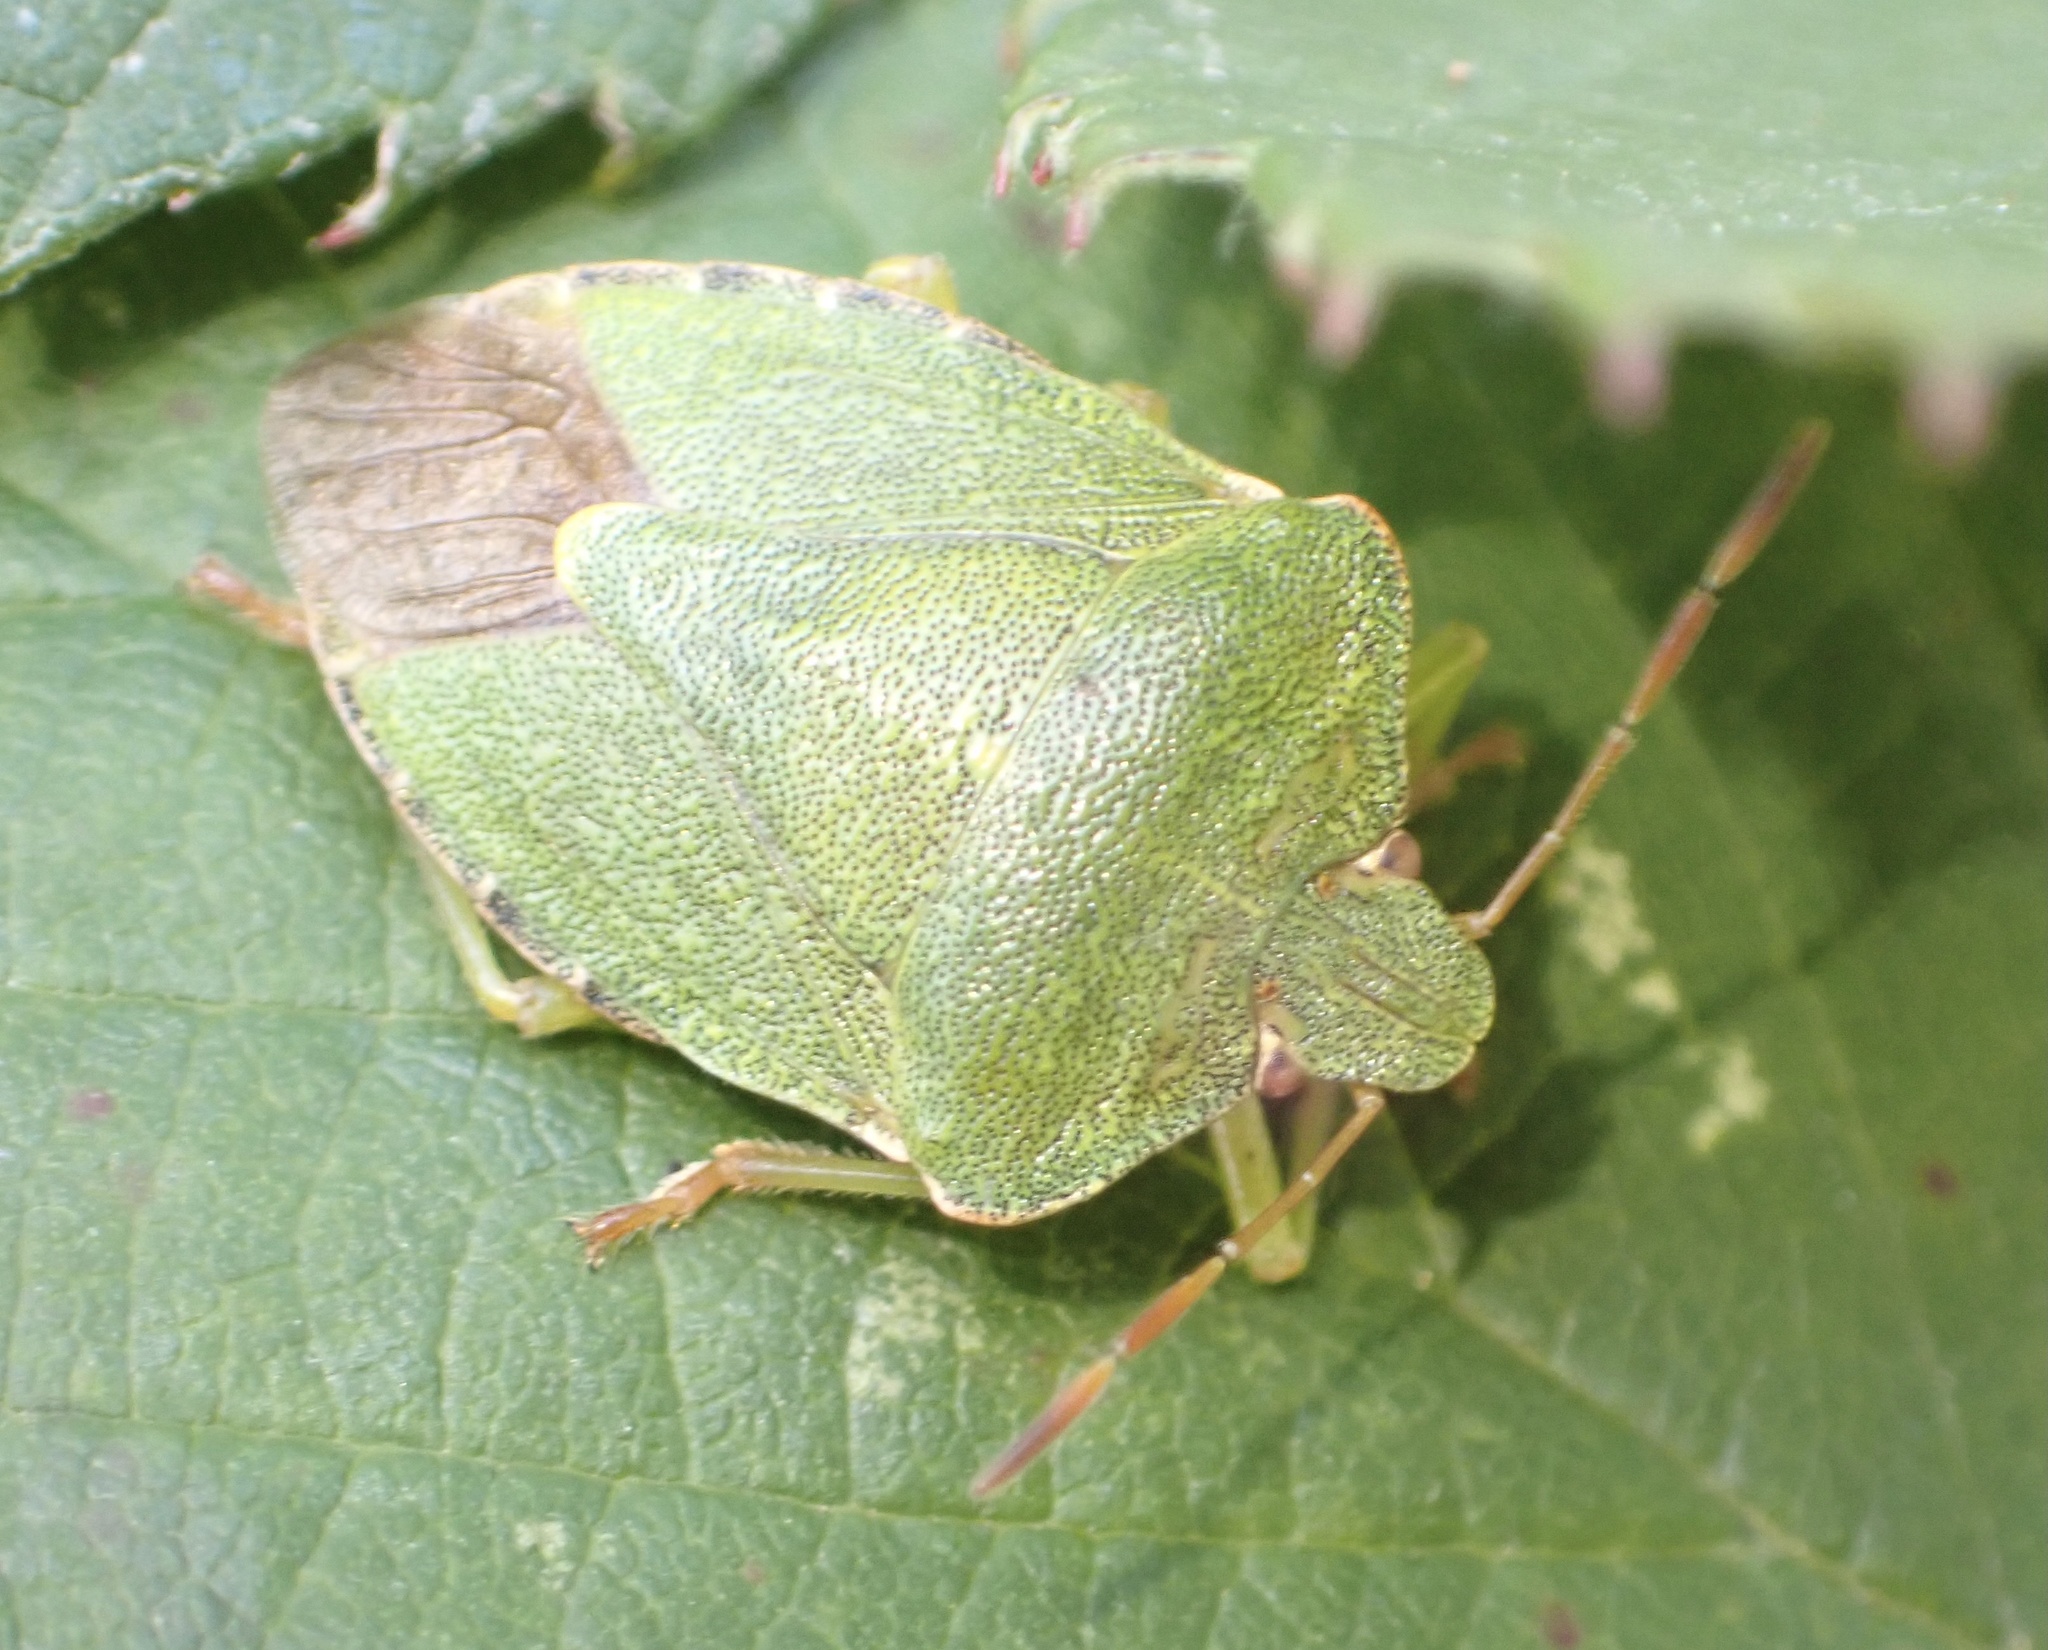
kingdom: Animalia
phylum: Arthropoda
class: Insecta
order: Hemiptera
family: Pentatomidae
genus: Palomena
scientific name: Palomena prasina
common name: Green shieldbug
